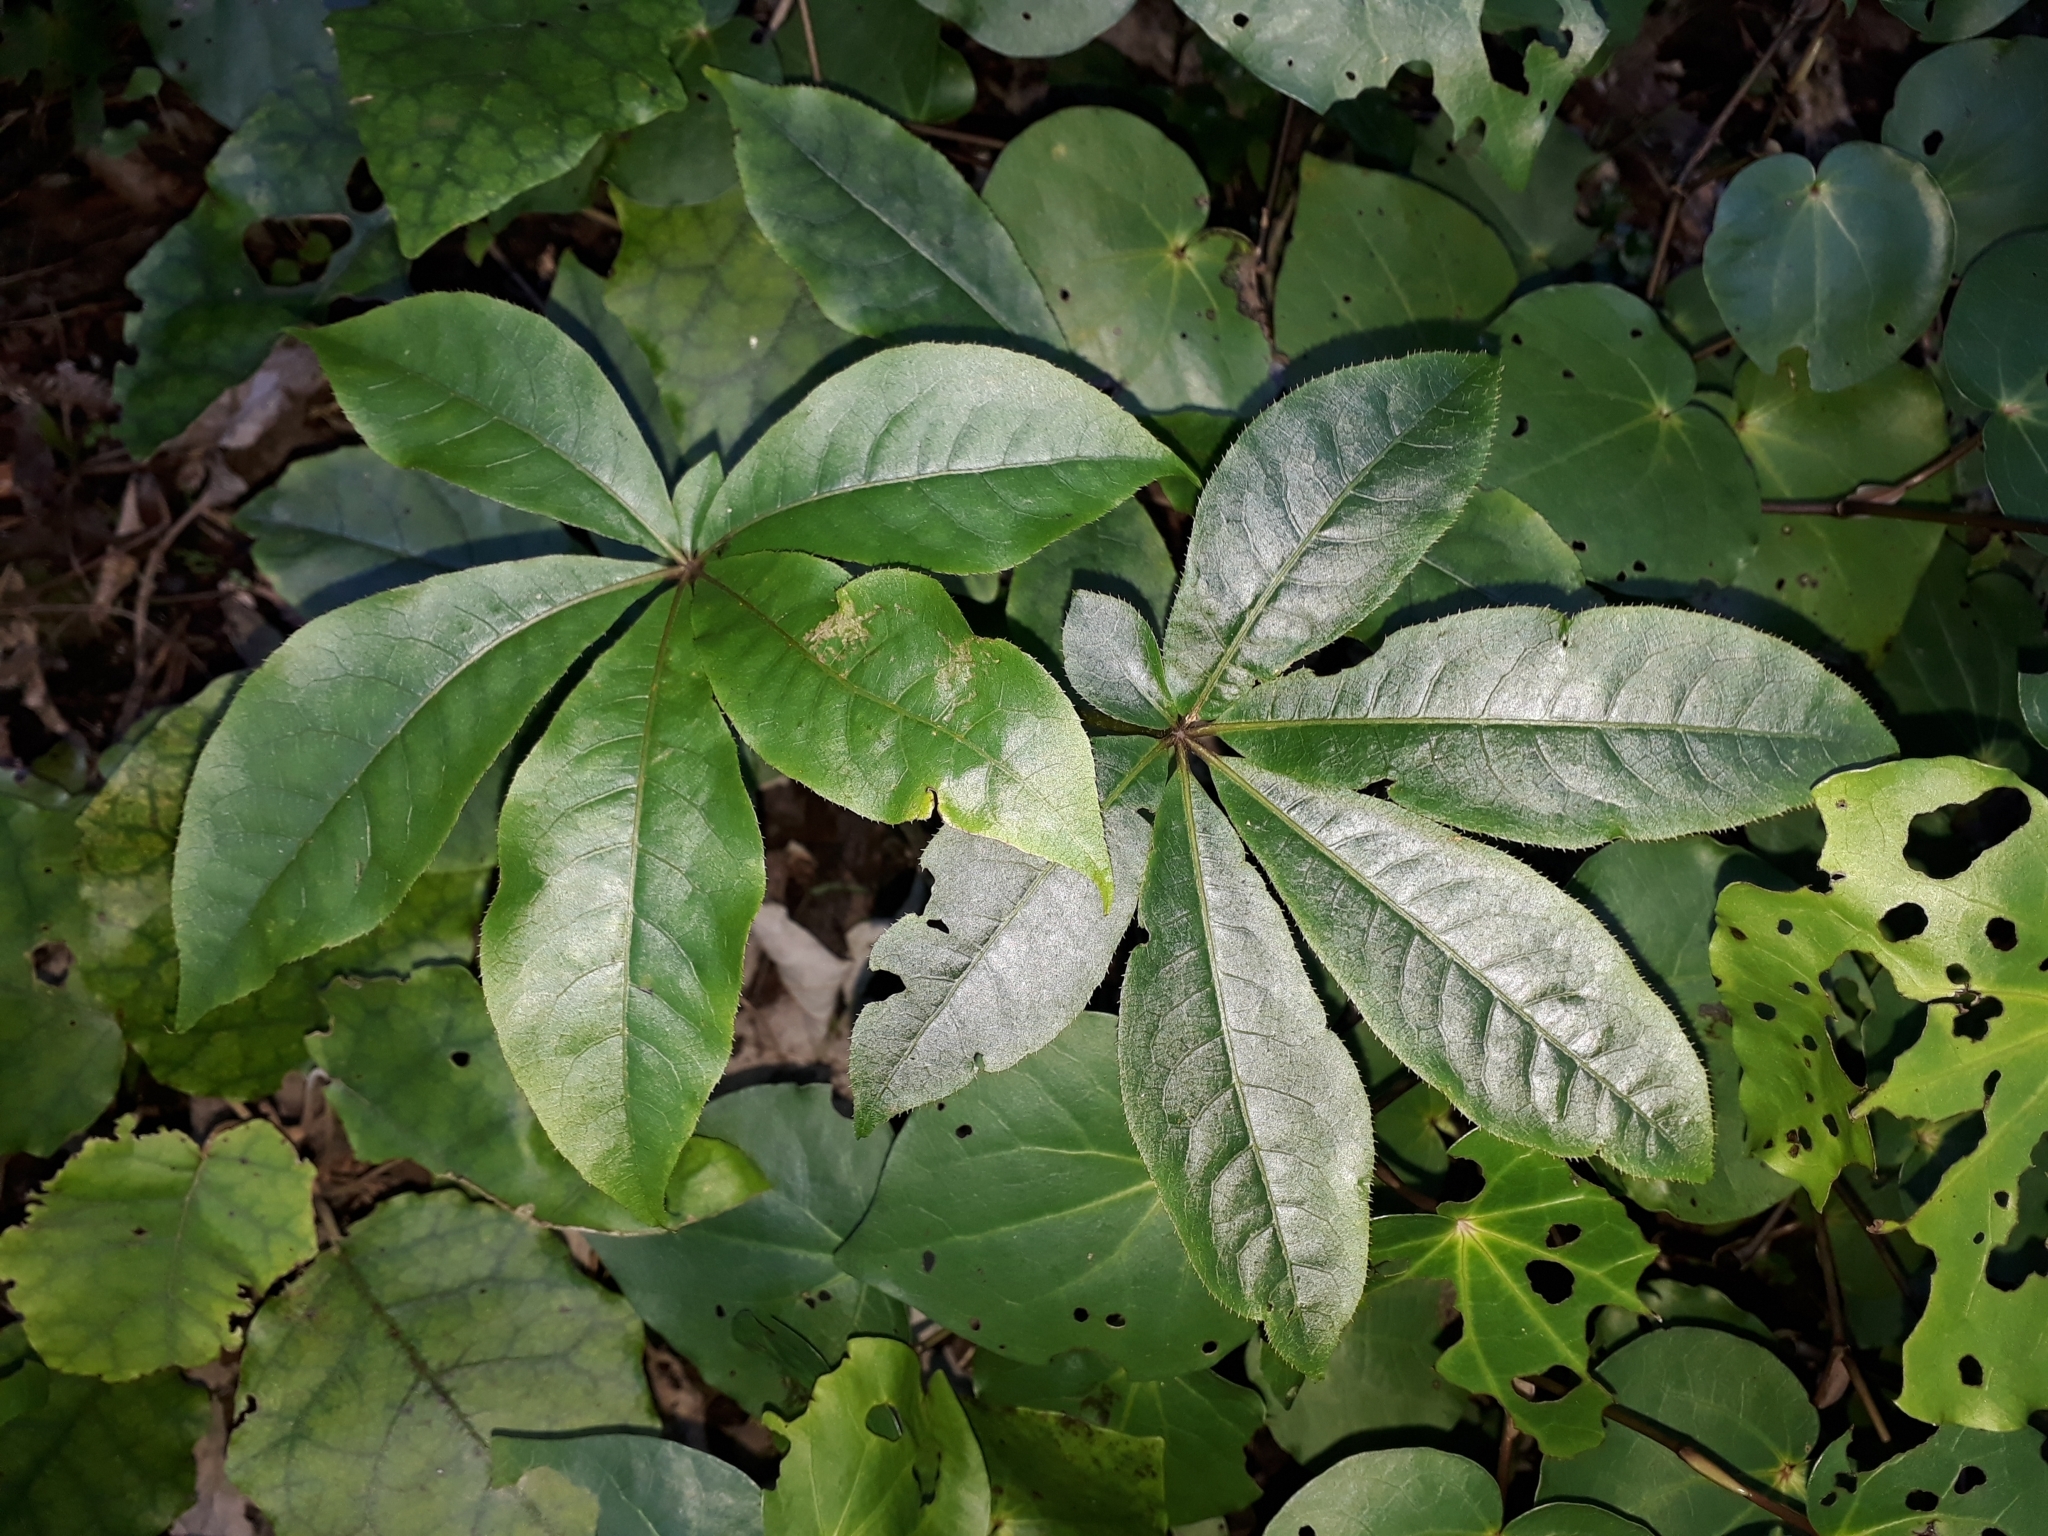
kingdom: Plantae
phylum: Tracheophyta
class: Magnoliopsida
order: Apiales
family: Araliaceae
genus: Schefflera
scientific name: Schefflera digitata
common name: Pate
